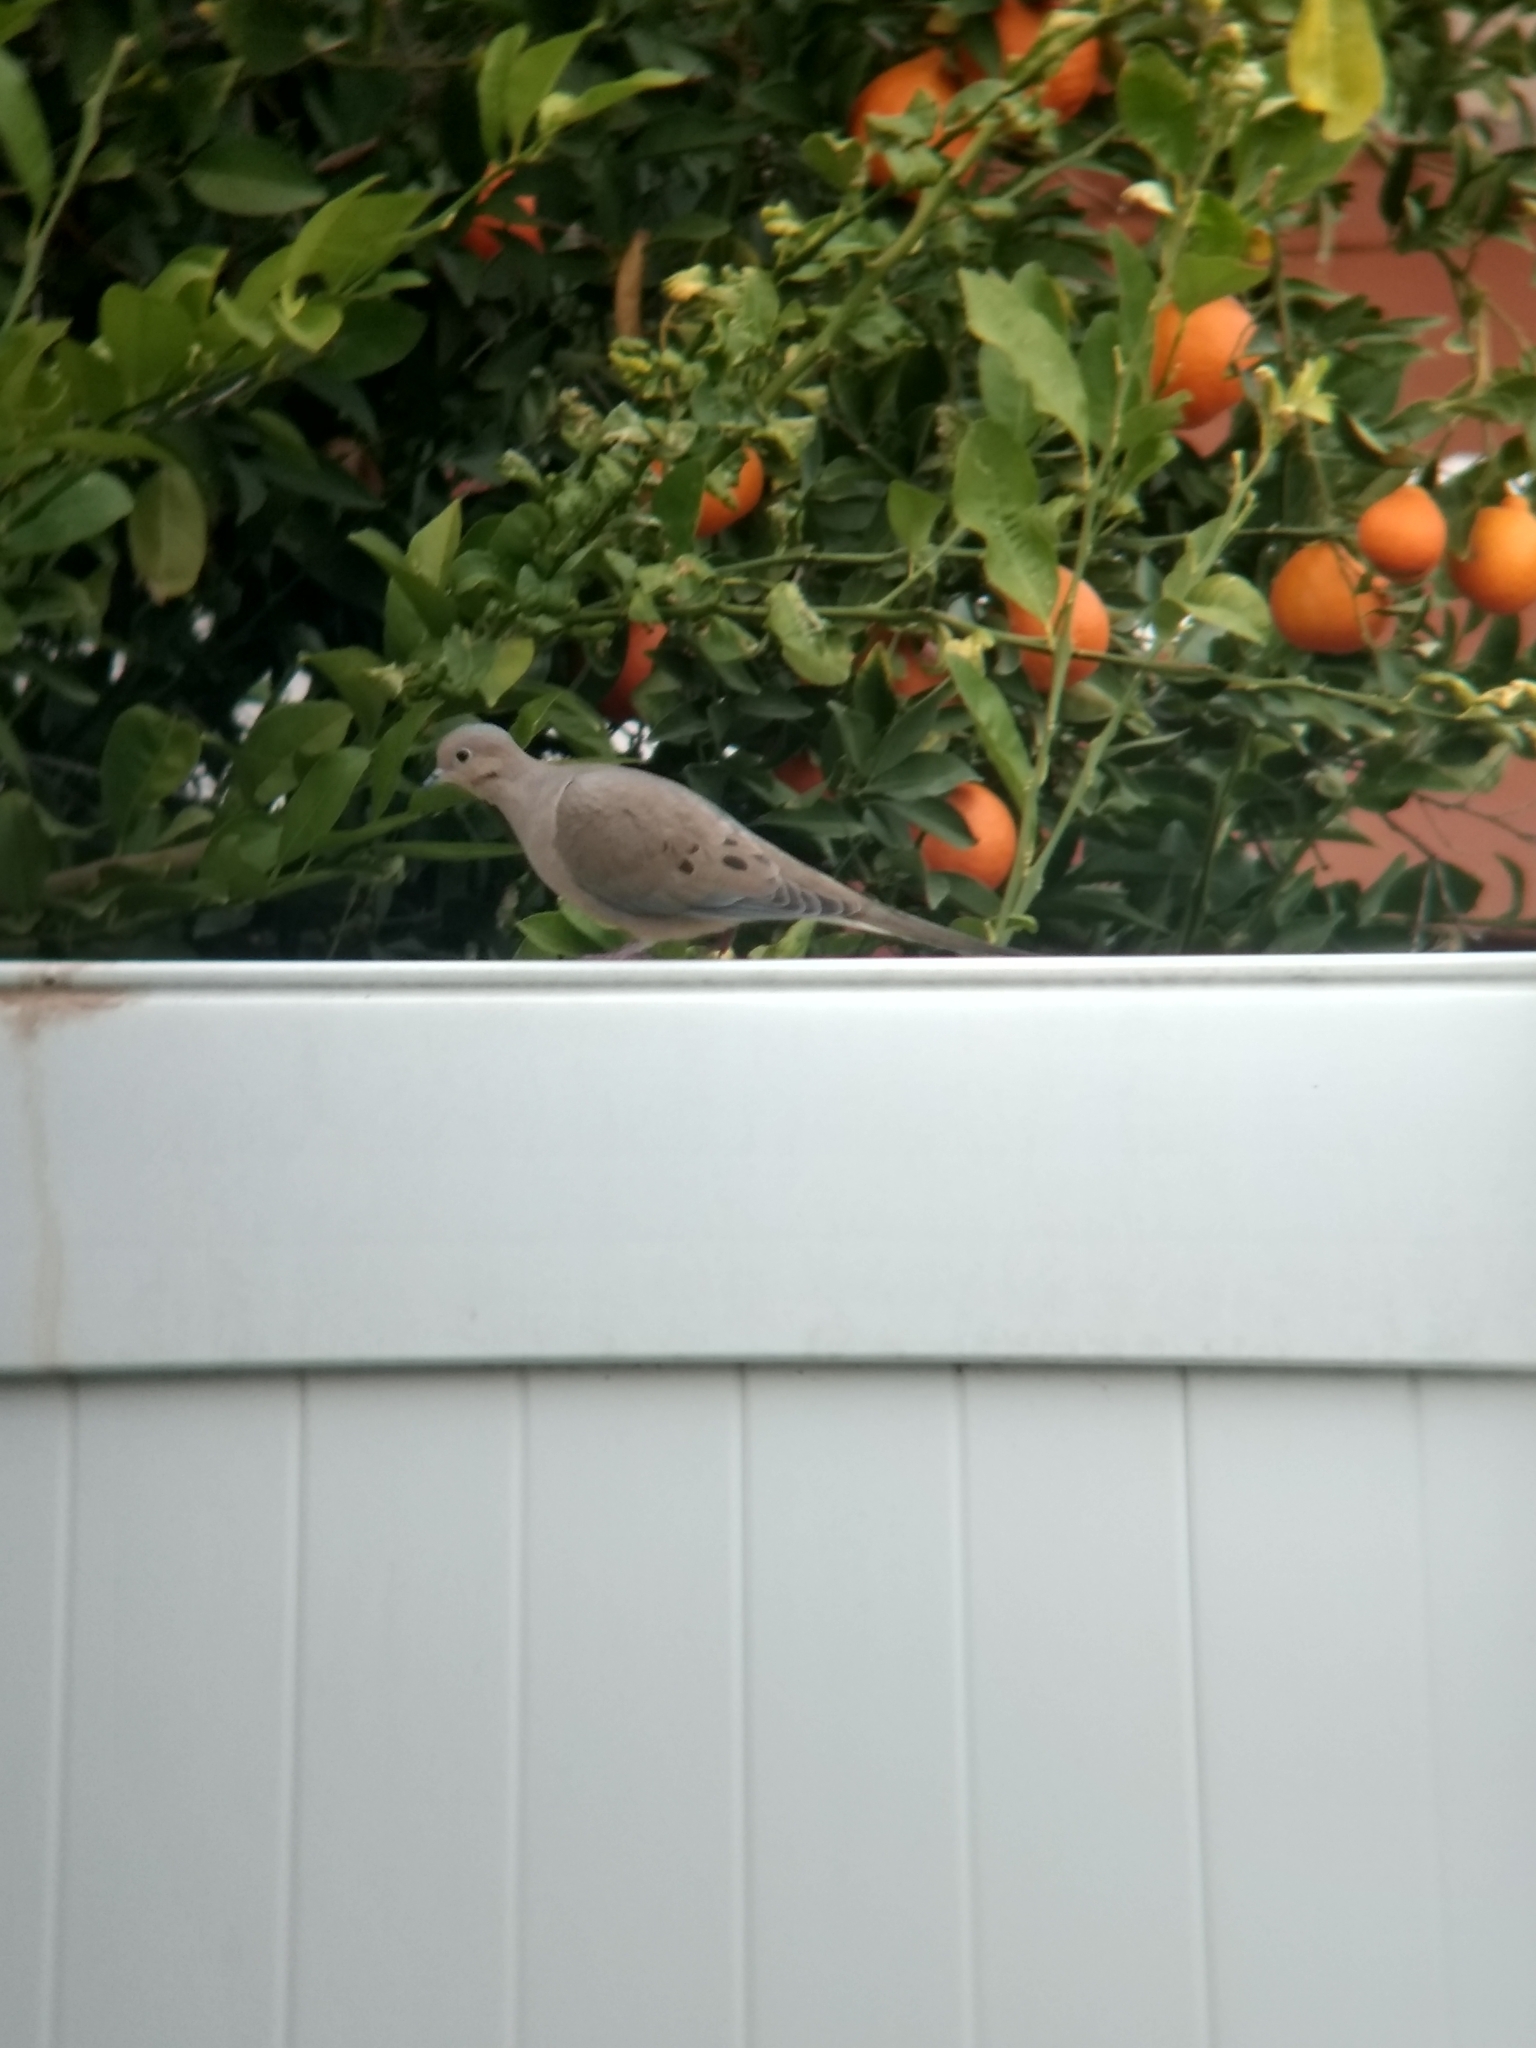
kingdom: Animalia
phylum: Chordata
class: Aves
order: Columbiformes
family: Columbidae
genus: Zenaida
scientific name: Zenaida macroura
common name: Mourning dove
